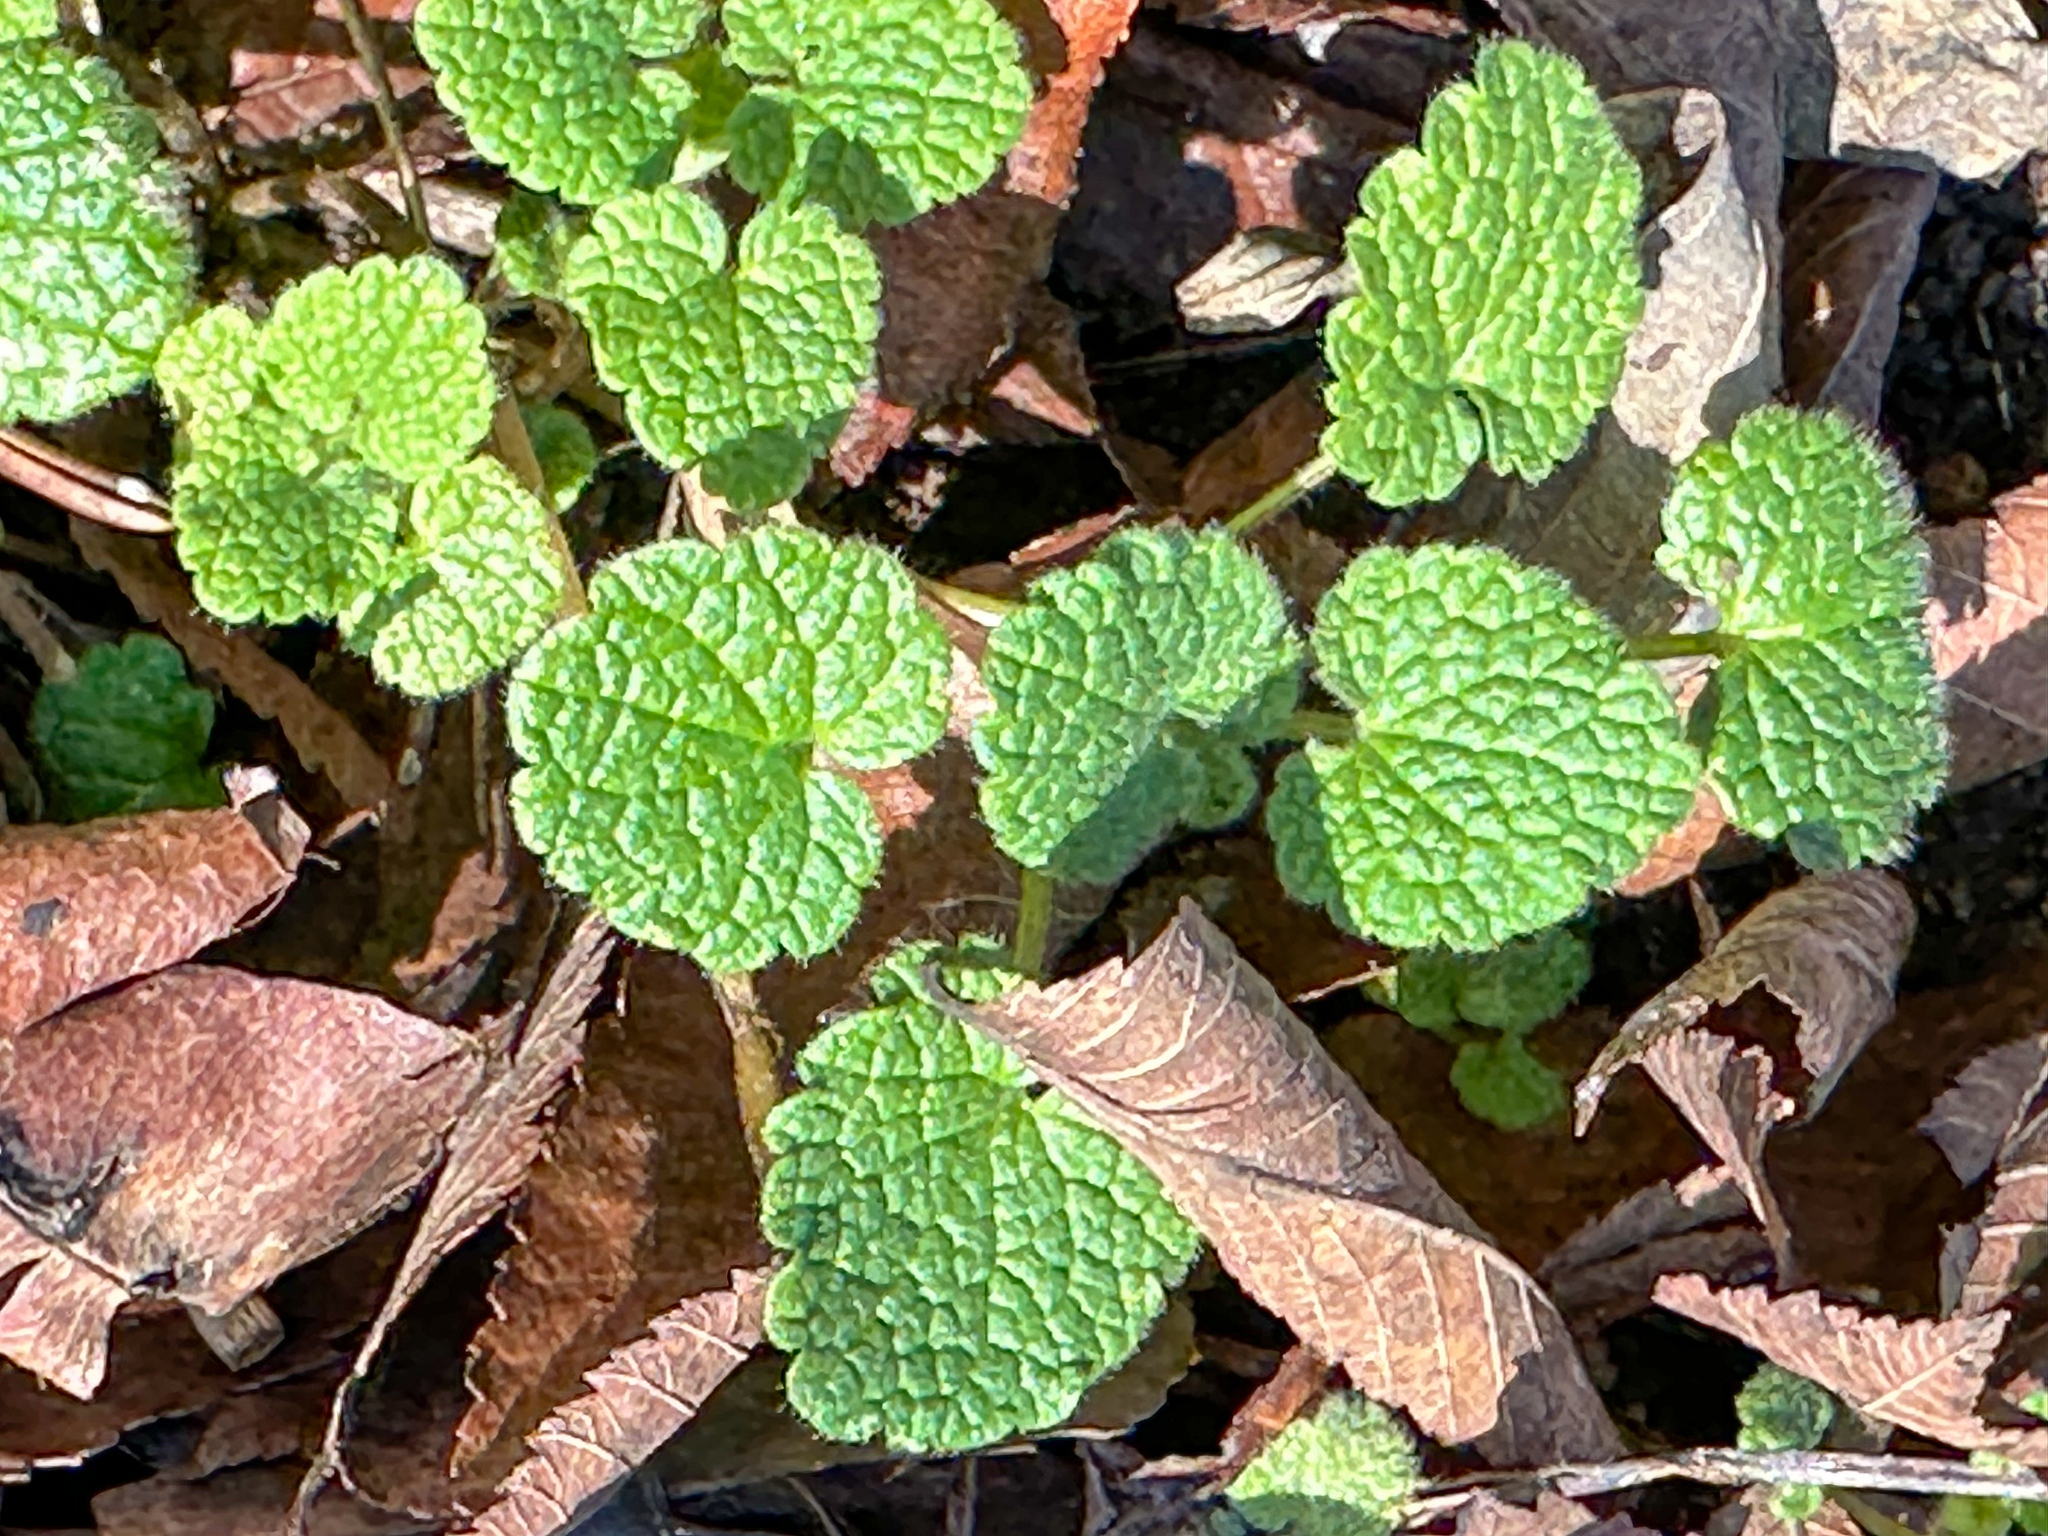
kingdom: Plantae
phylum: Tracheophyta
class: Magnoliopsida
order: Lamiales
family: Lamiaceae
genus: Lamium
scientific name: Lamium purpureum
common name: Red dead-nettle
